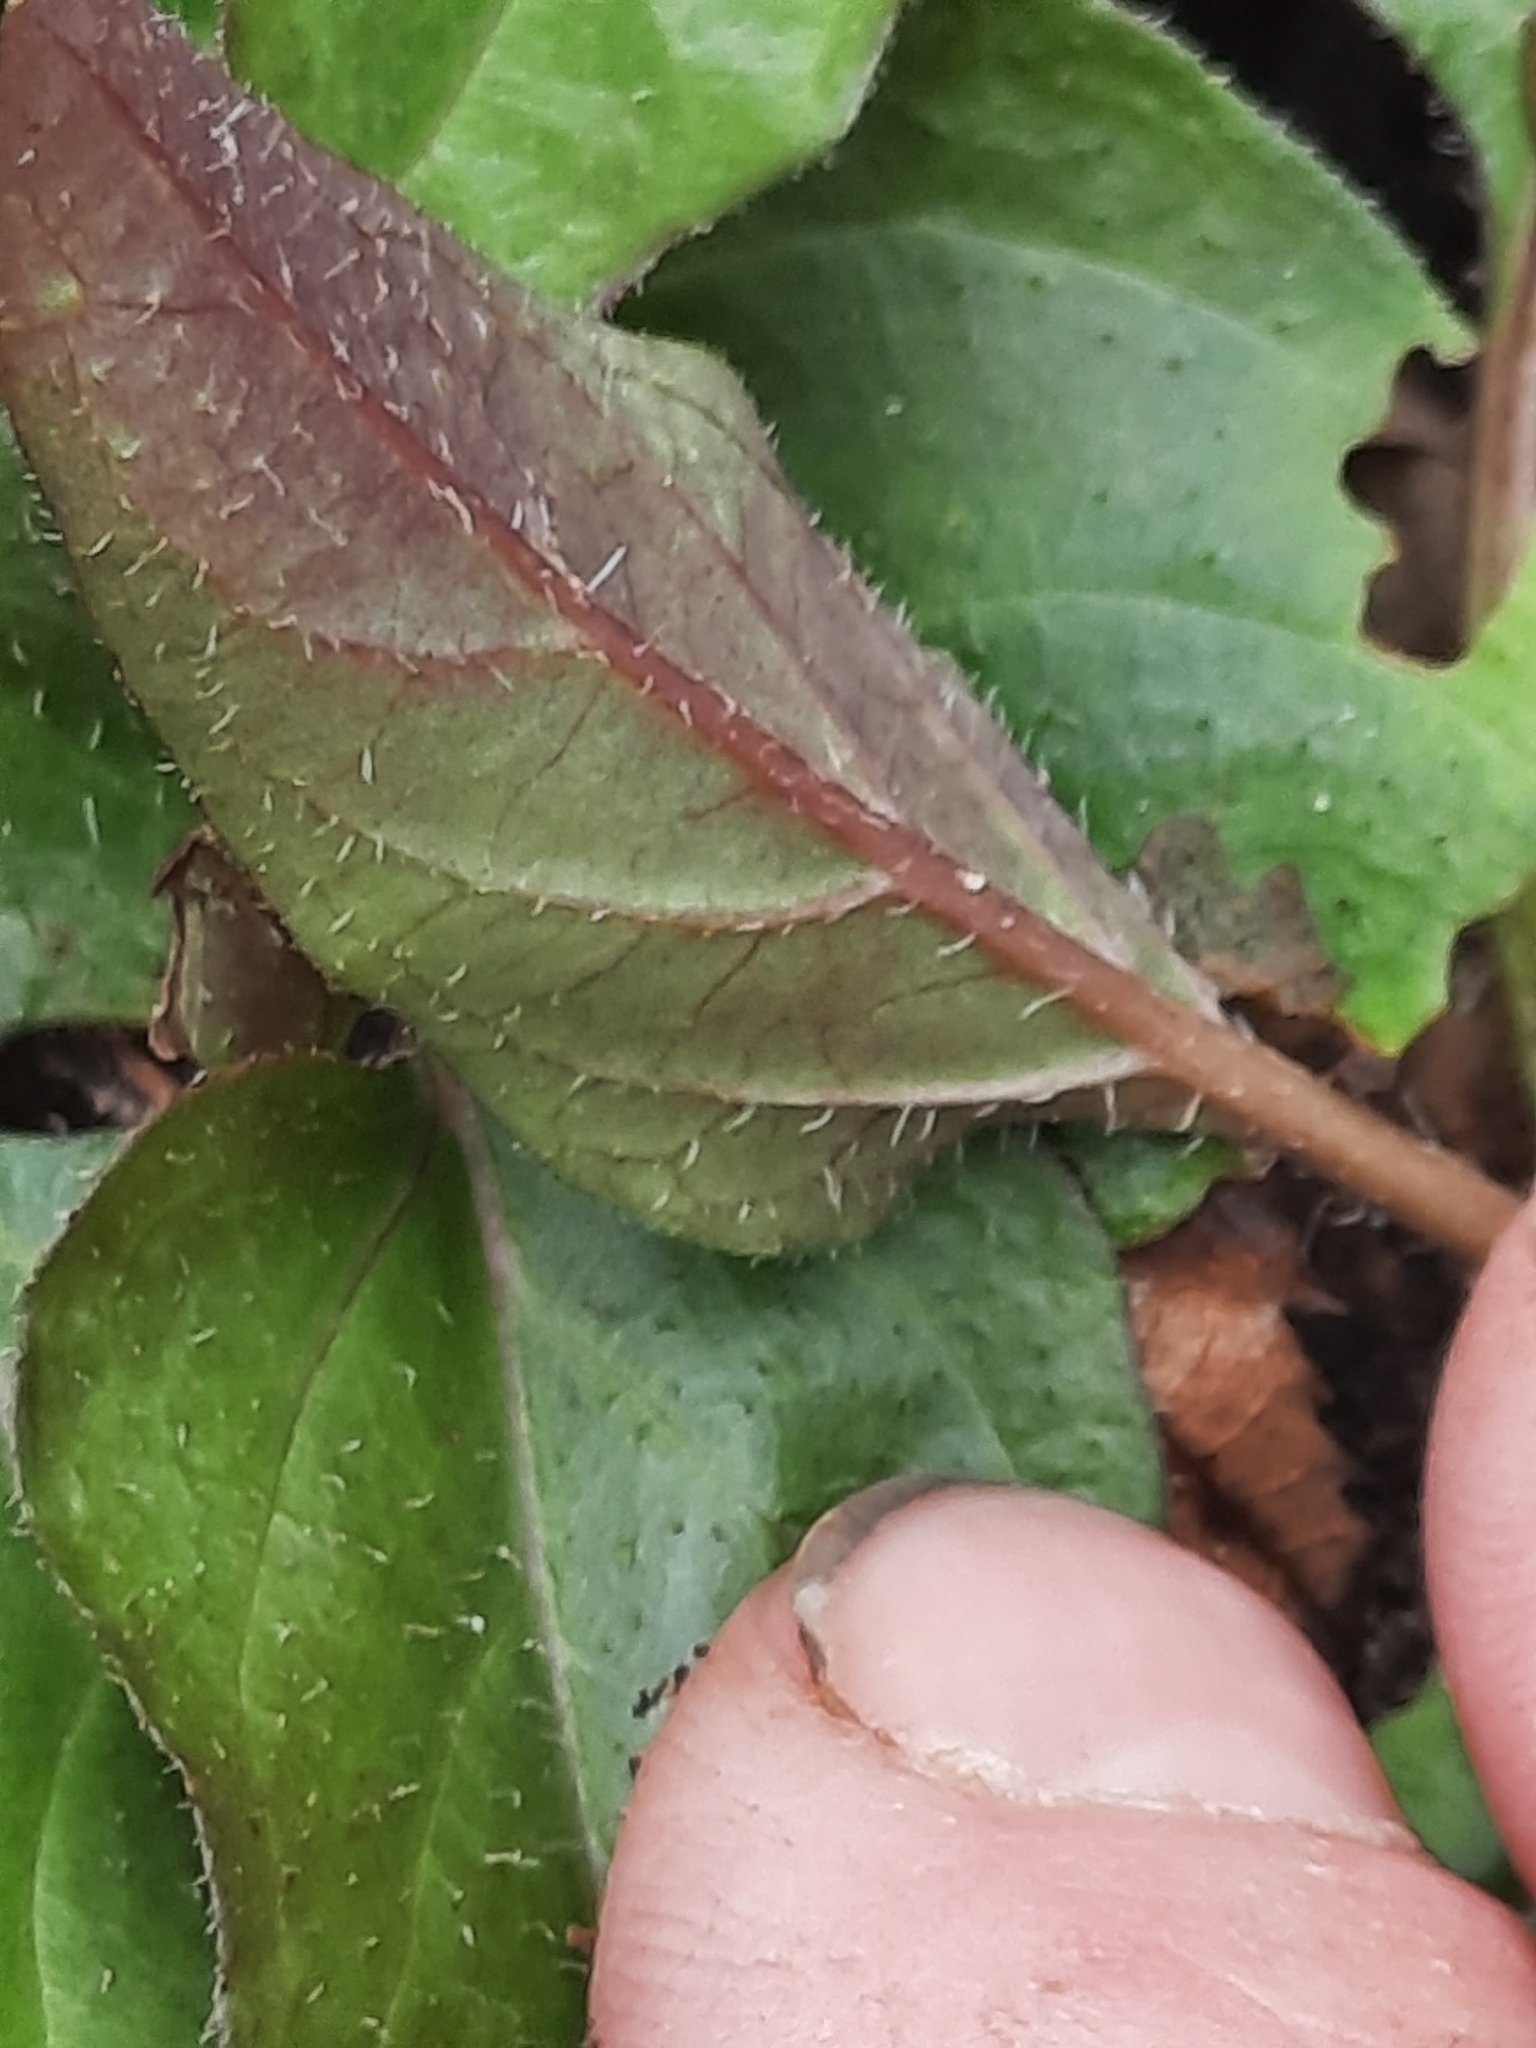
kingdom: Plantae
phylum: Tracheophyta
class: Magnoliopsida
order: Lamiales
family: Lamiaceae
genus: Prunella
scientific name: Prunella vulgaris
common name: Heal-all
